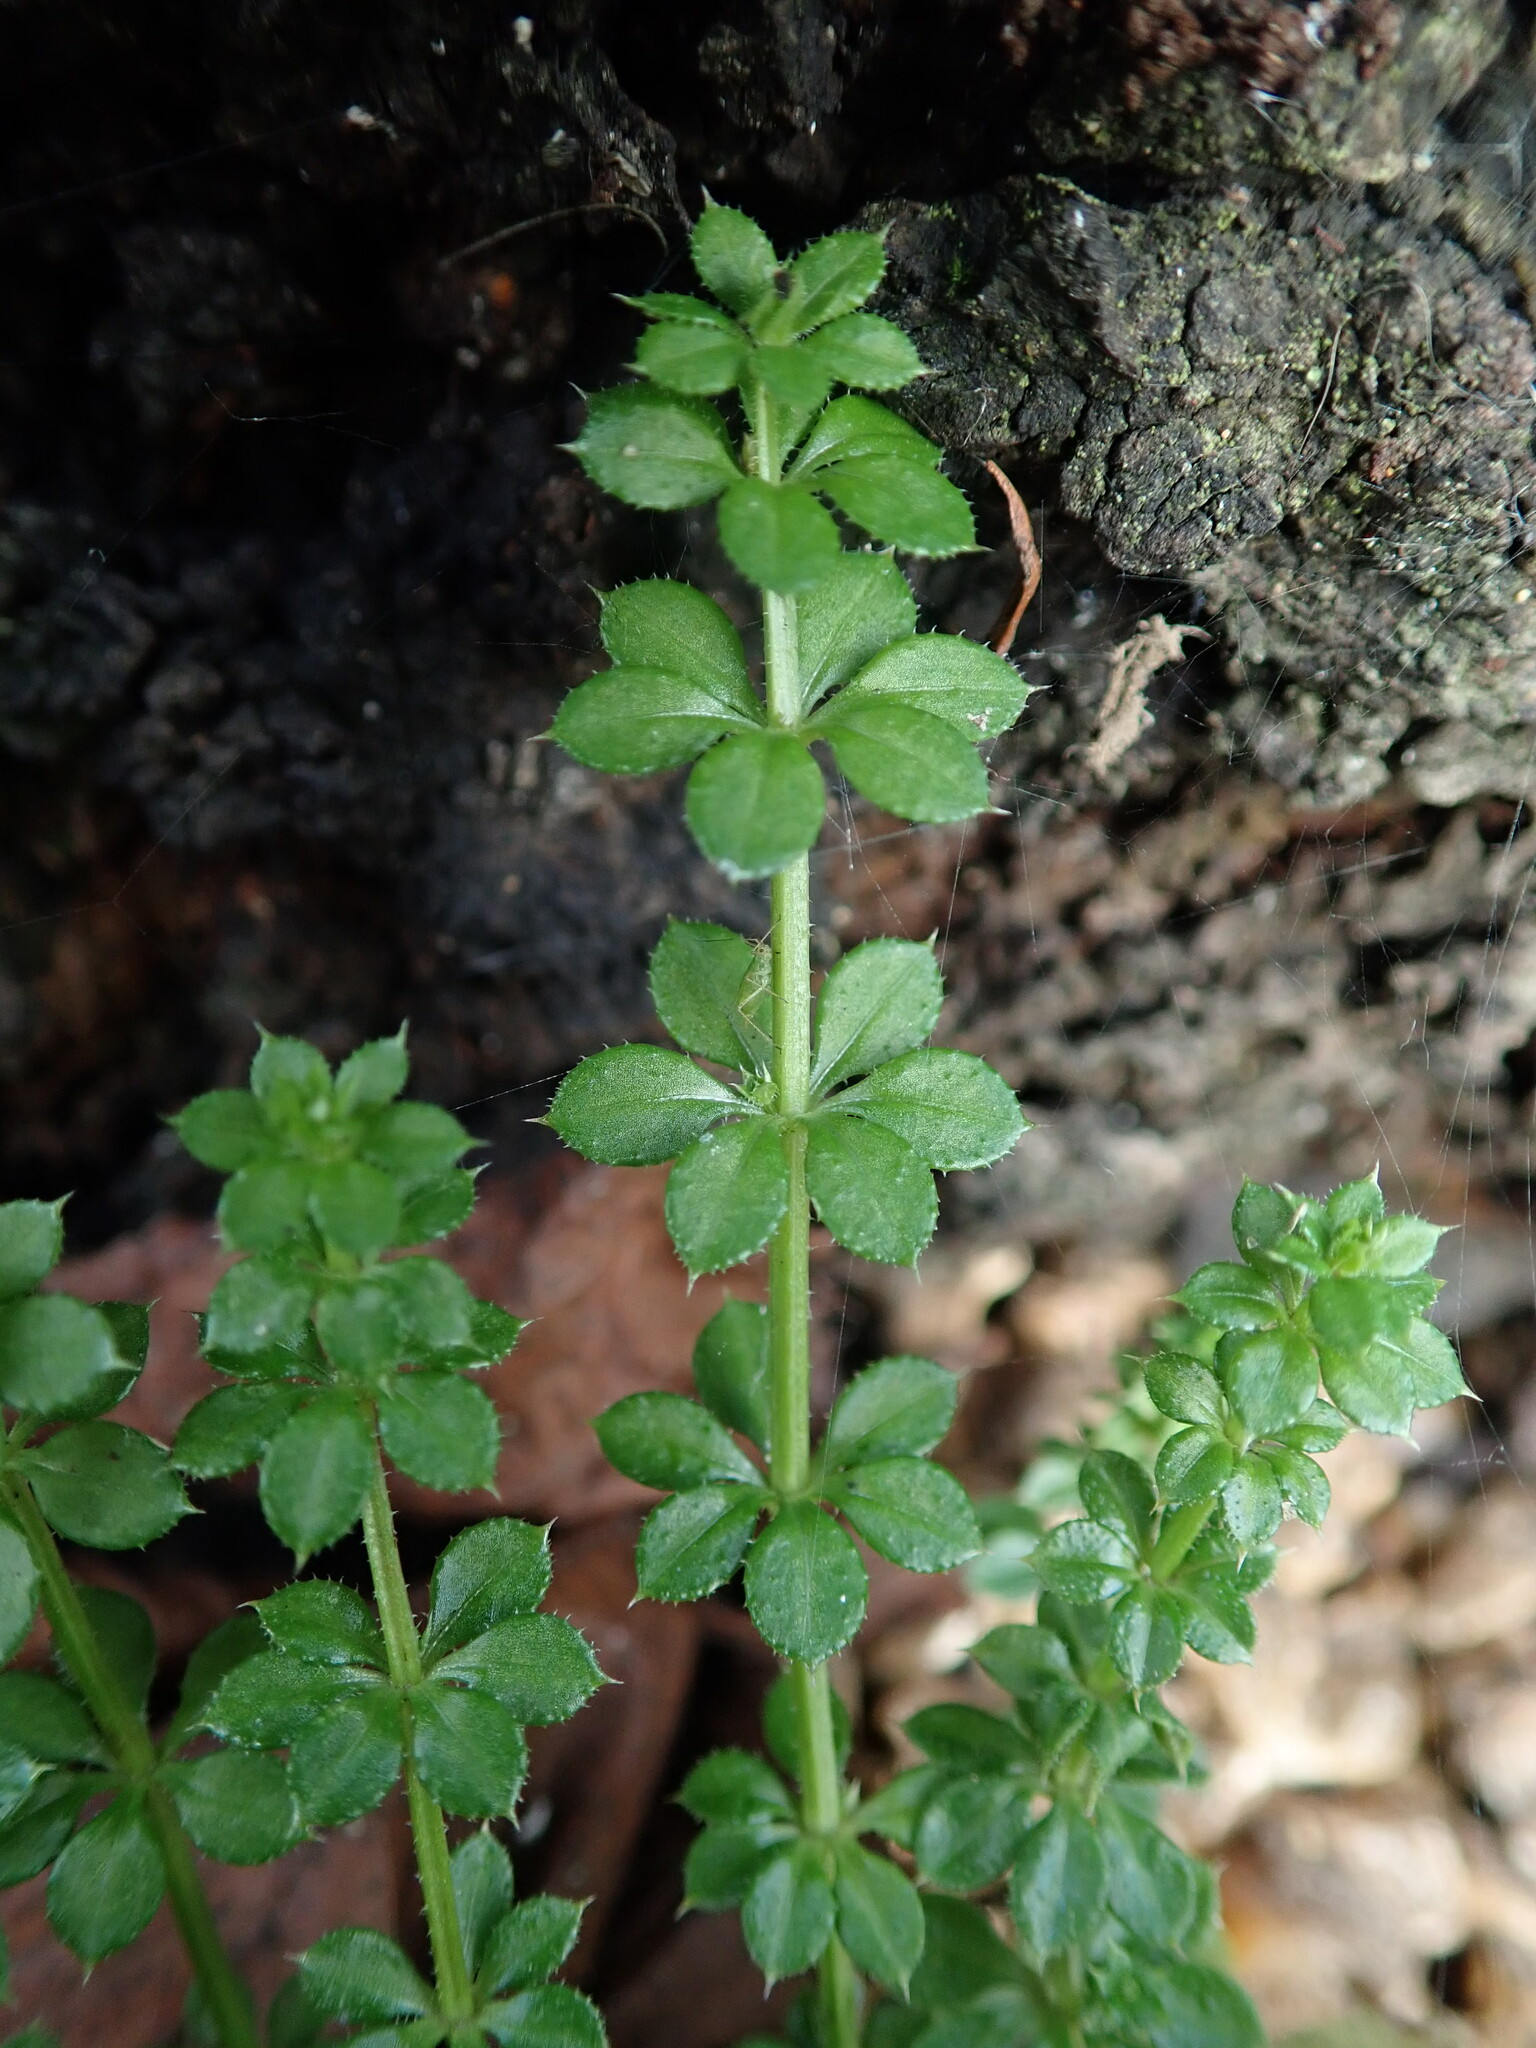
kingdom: Plantae
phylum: Tracheophyta
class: Magnoliopsida
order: Gentianales
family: Rubiaceae
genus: Galium
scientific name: Galium aparine
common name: Cleavers
